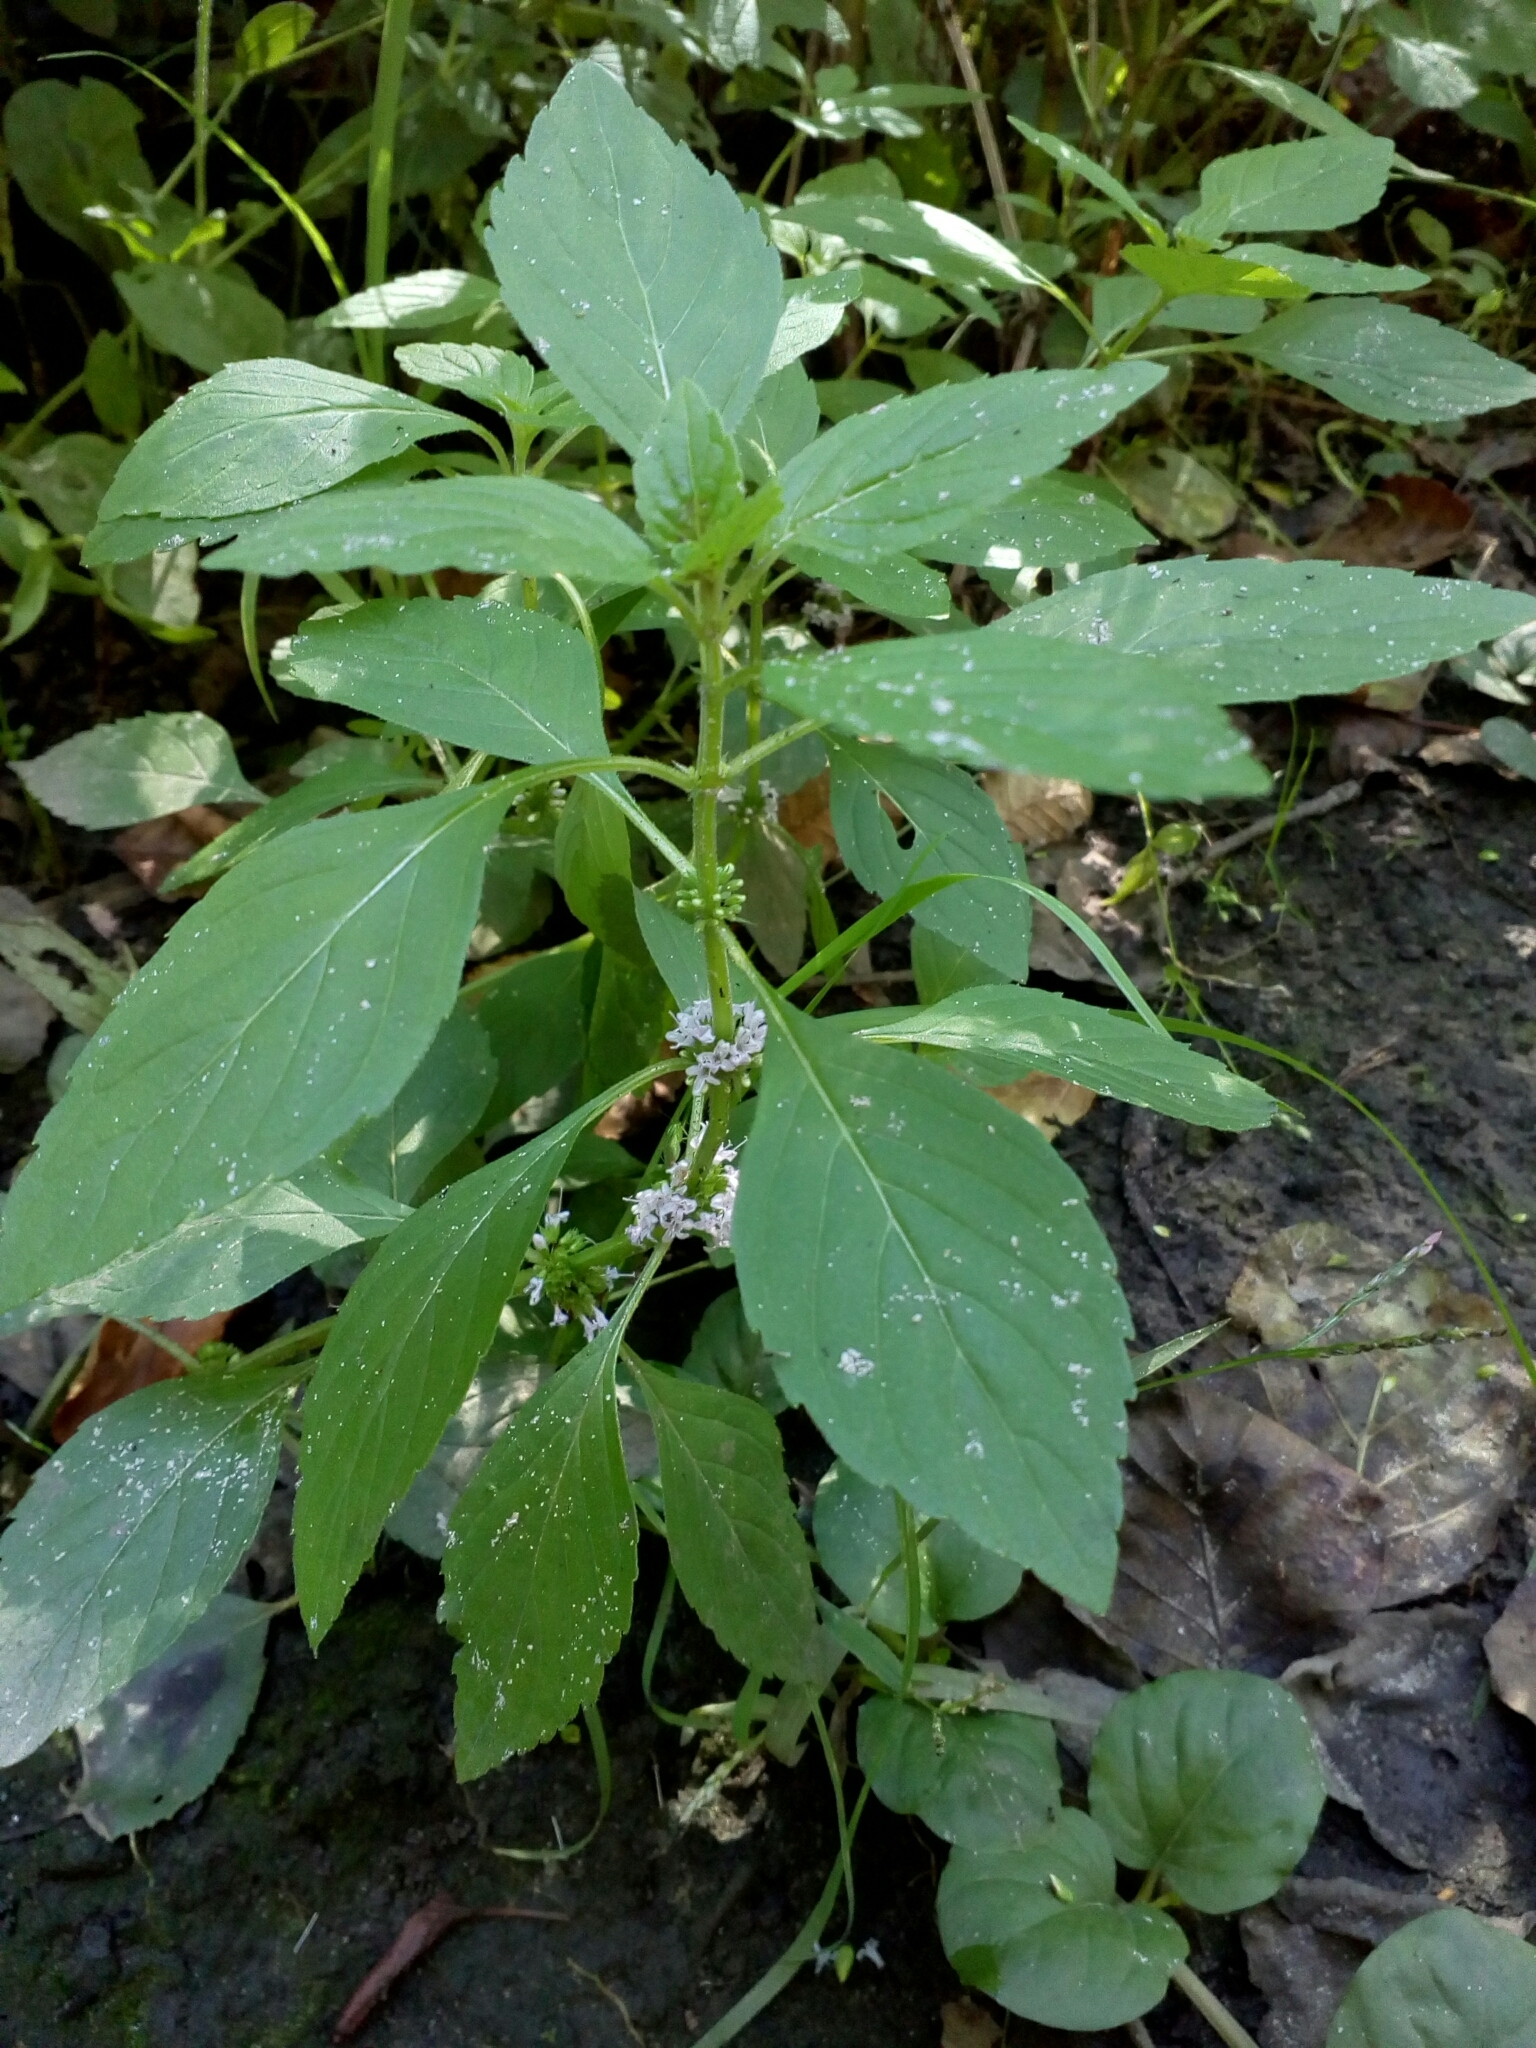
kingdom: Plantae
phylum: Tracheophyta
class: Magnoliopsida
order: Lamiales
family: Lamiaceae
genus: Mentha
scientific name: Mentha arvensis
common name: Corn mint
